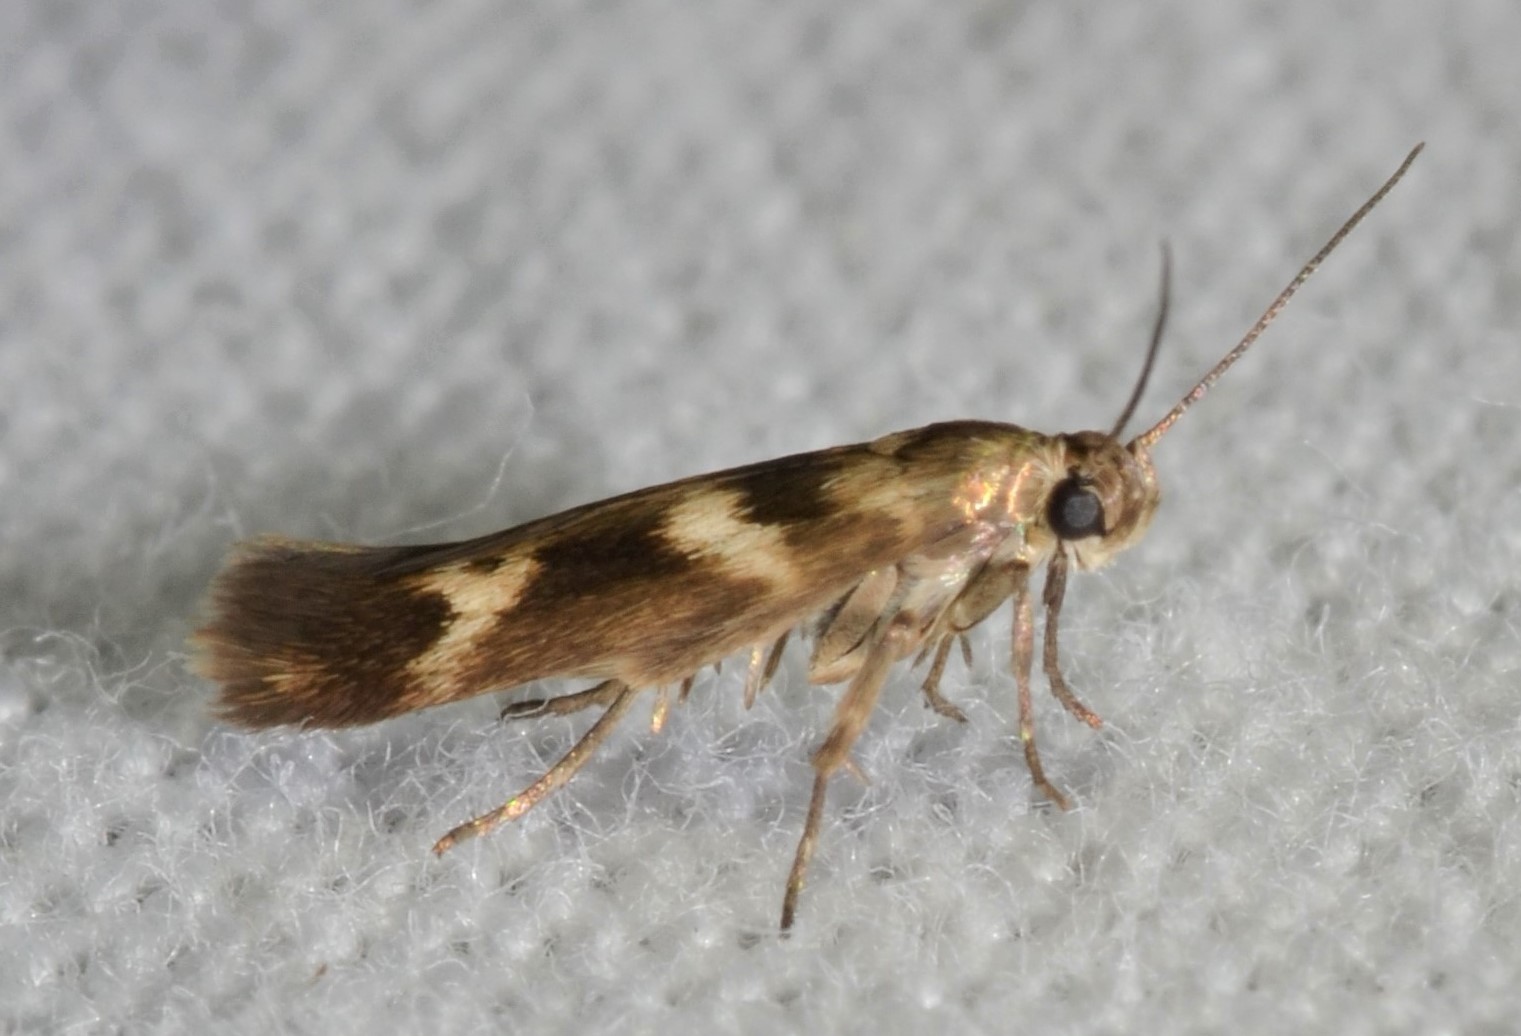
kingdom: Animalia
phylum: Arthropoda
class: Insecta
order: Lepidoptera
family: Scythrididae
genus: Scythris
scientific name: Scythris trivinctella
